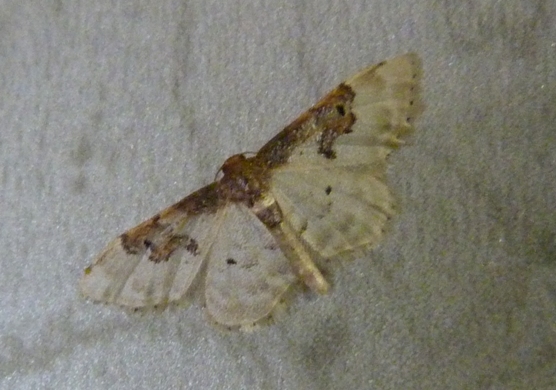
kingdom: Animalia
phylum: Arthropoda
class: Insecta
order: Lepidoptera
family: Geometridae
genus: Idaea
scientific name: Idaea rusticata
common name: Least carpet
